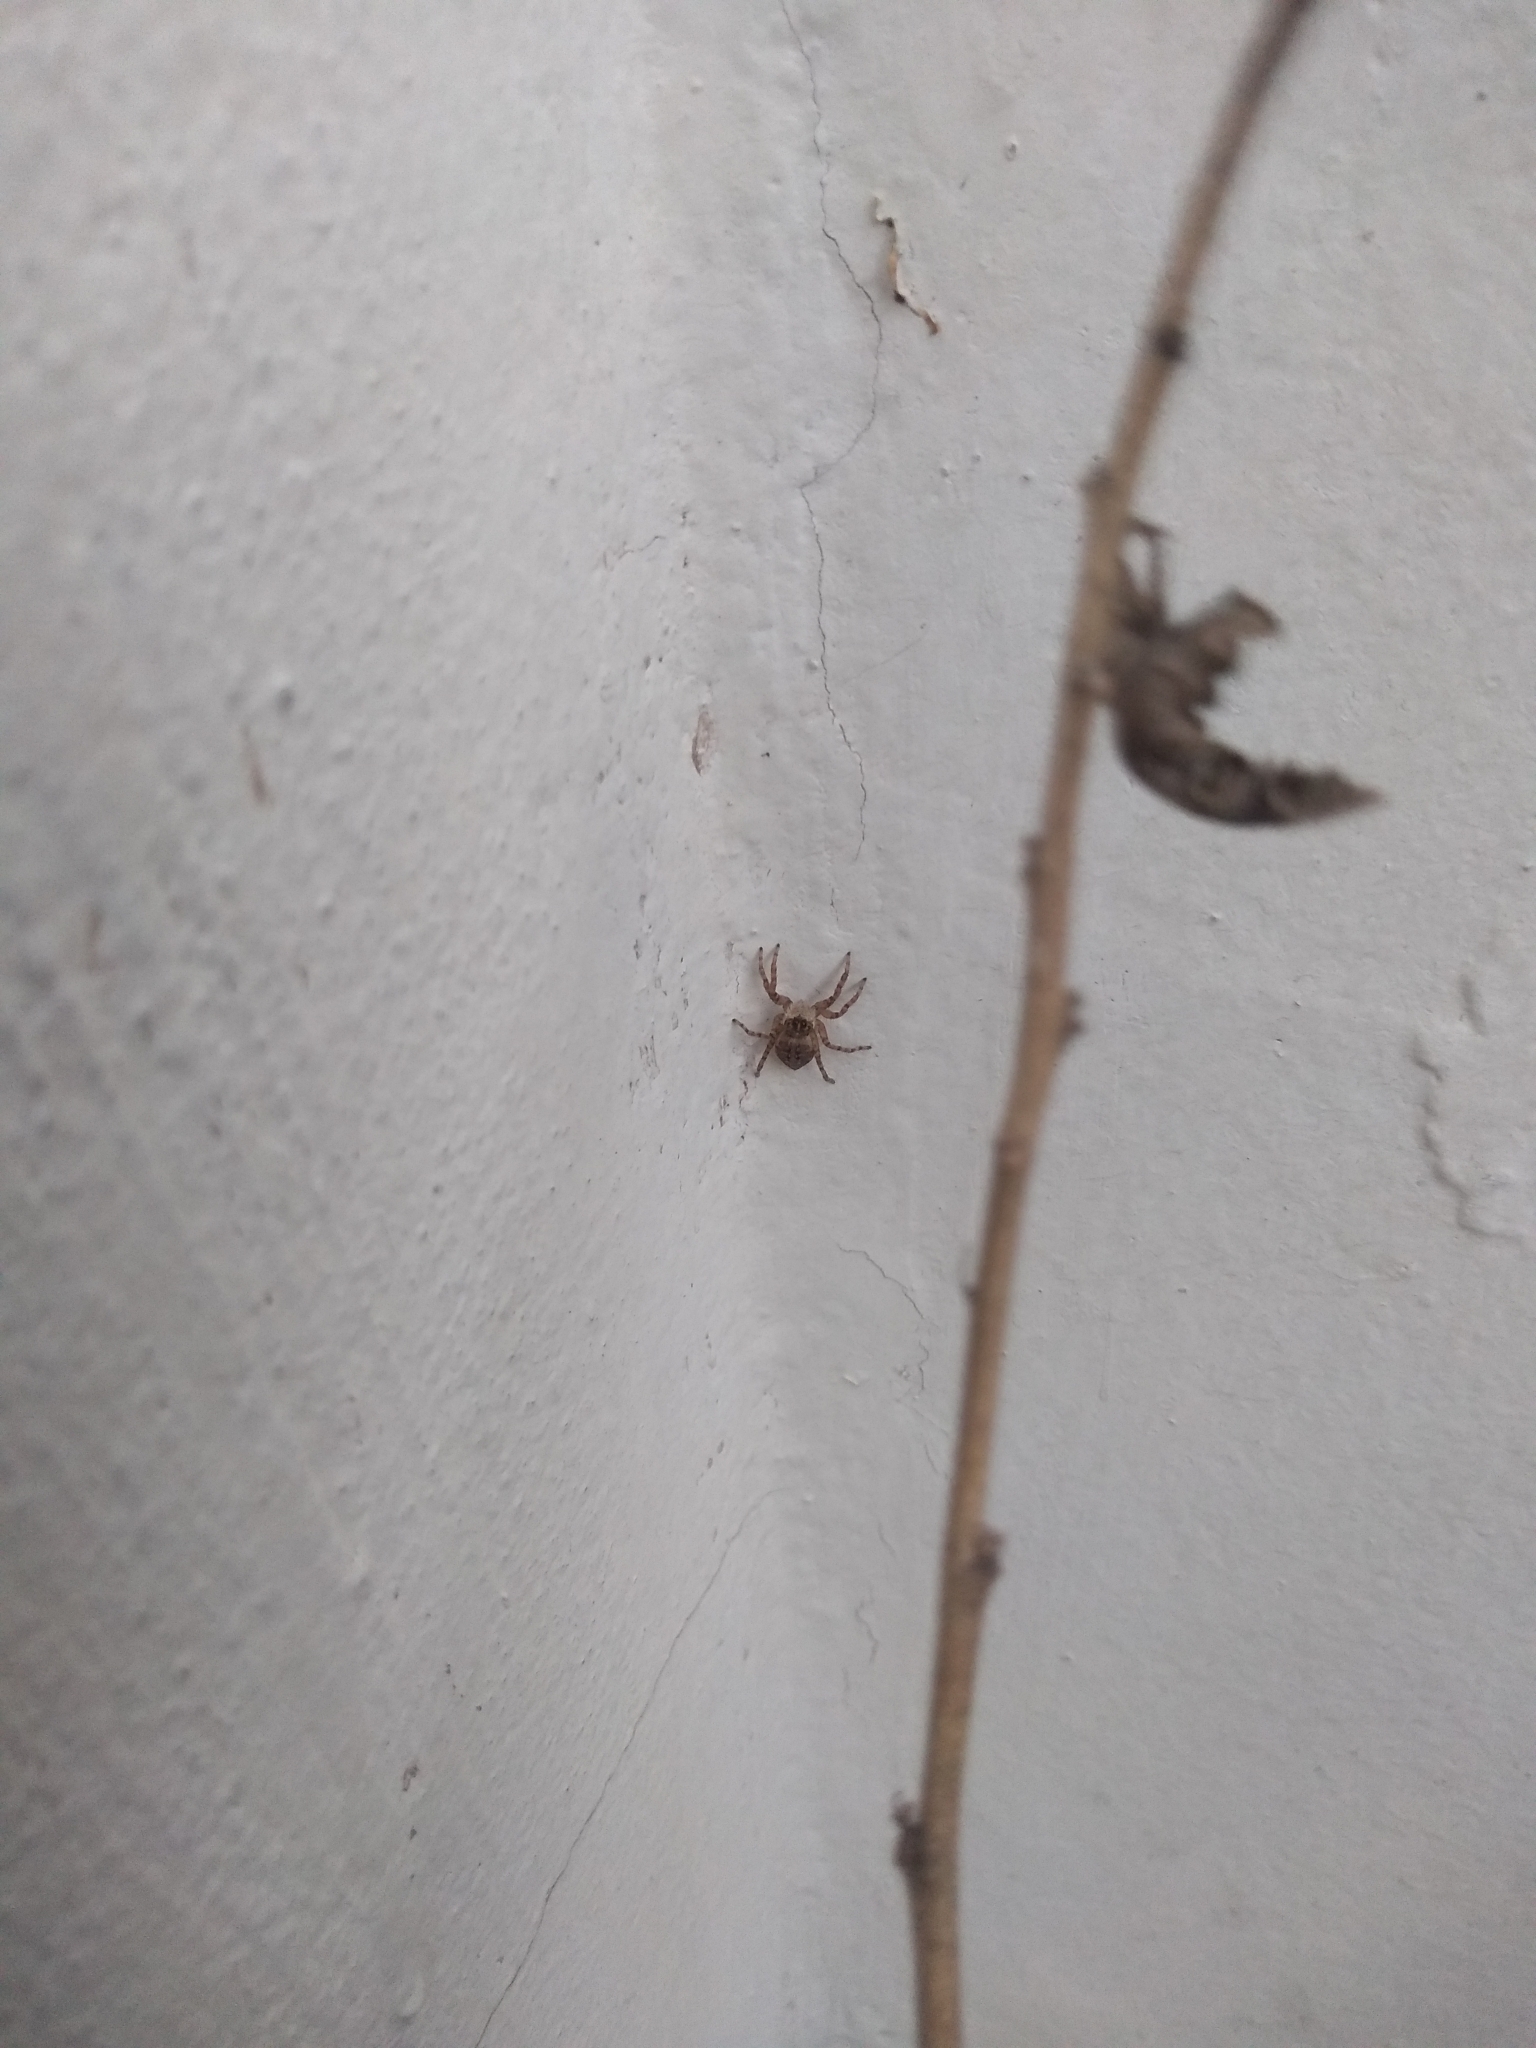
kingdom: Animalia
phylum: Arthropoda
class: Arachnida
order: Araneae
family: Salticidae
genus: Menemerus
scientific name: Menemerus semilimbatus
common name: Jumping spider
